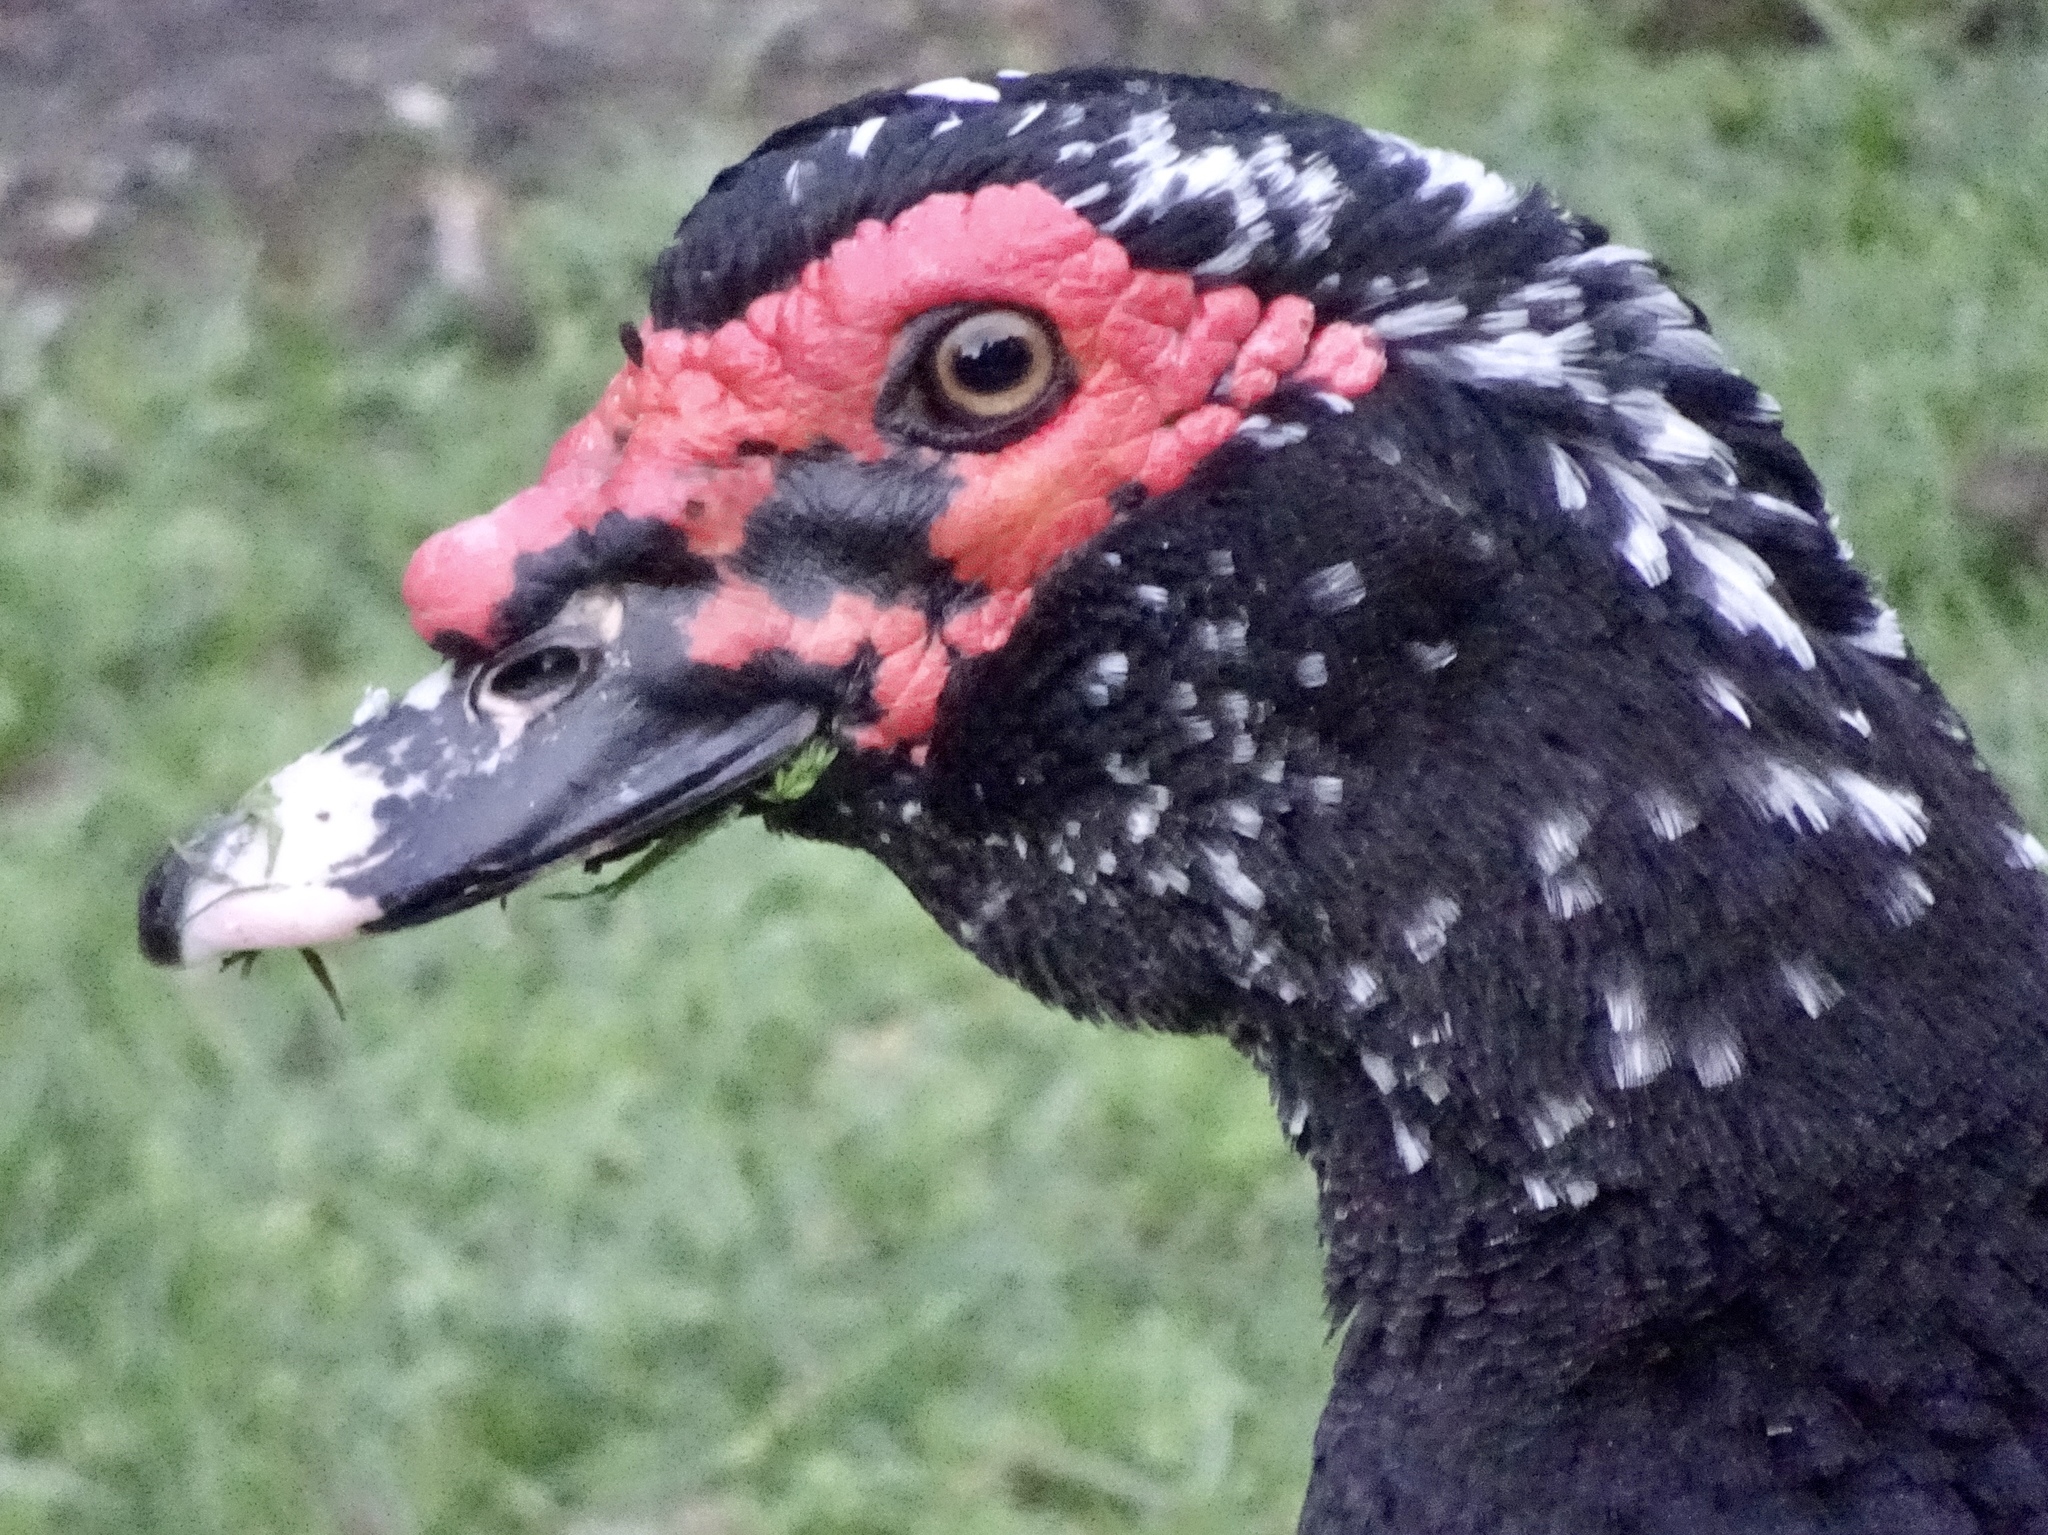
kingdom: Animalia
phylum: Chordata
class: Aves
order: Anseriformes
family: Anatidae
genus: Cairina
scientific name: Cairina moschata
